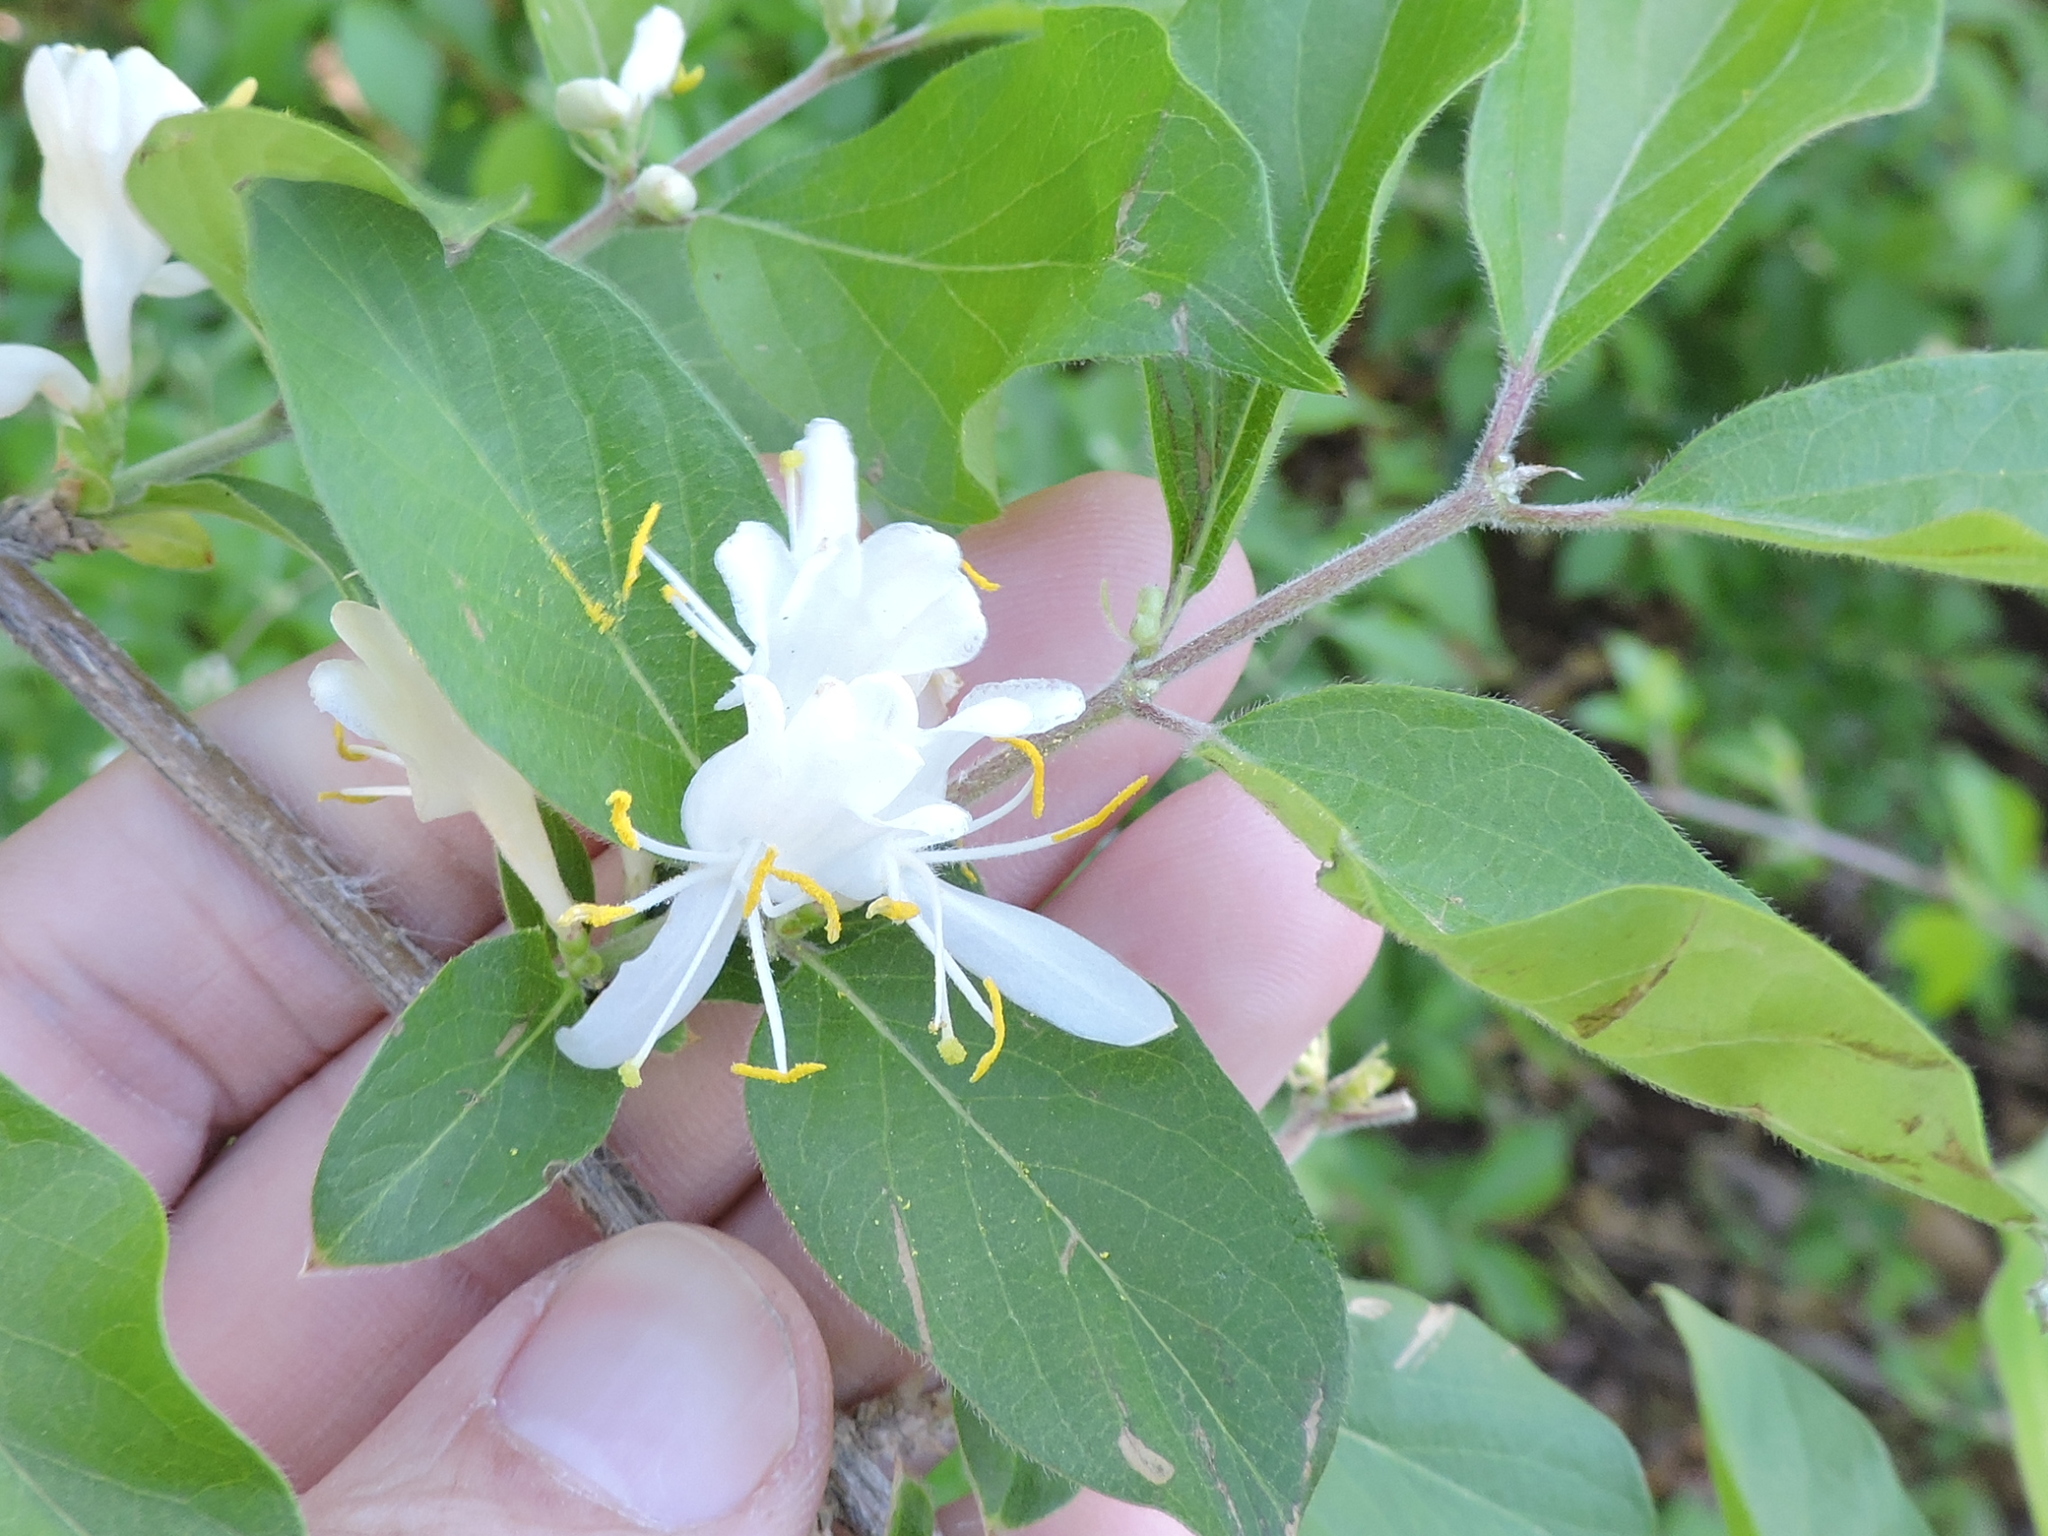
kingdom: Plantae
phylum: Tracheophyta
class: Magnoliopsida
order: Dipsacales
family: Caprifoliaceae
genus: Lonicera
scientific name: Lonicera maackii
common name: Amur honeysuckle
